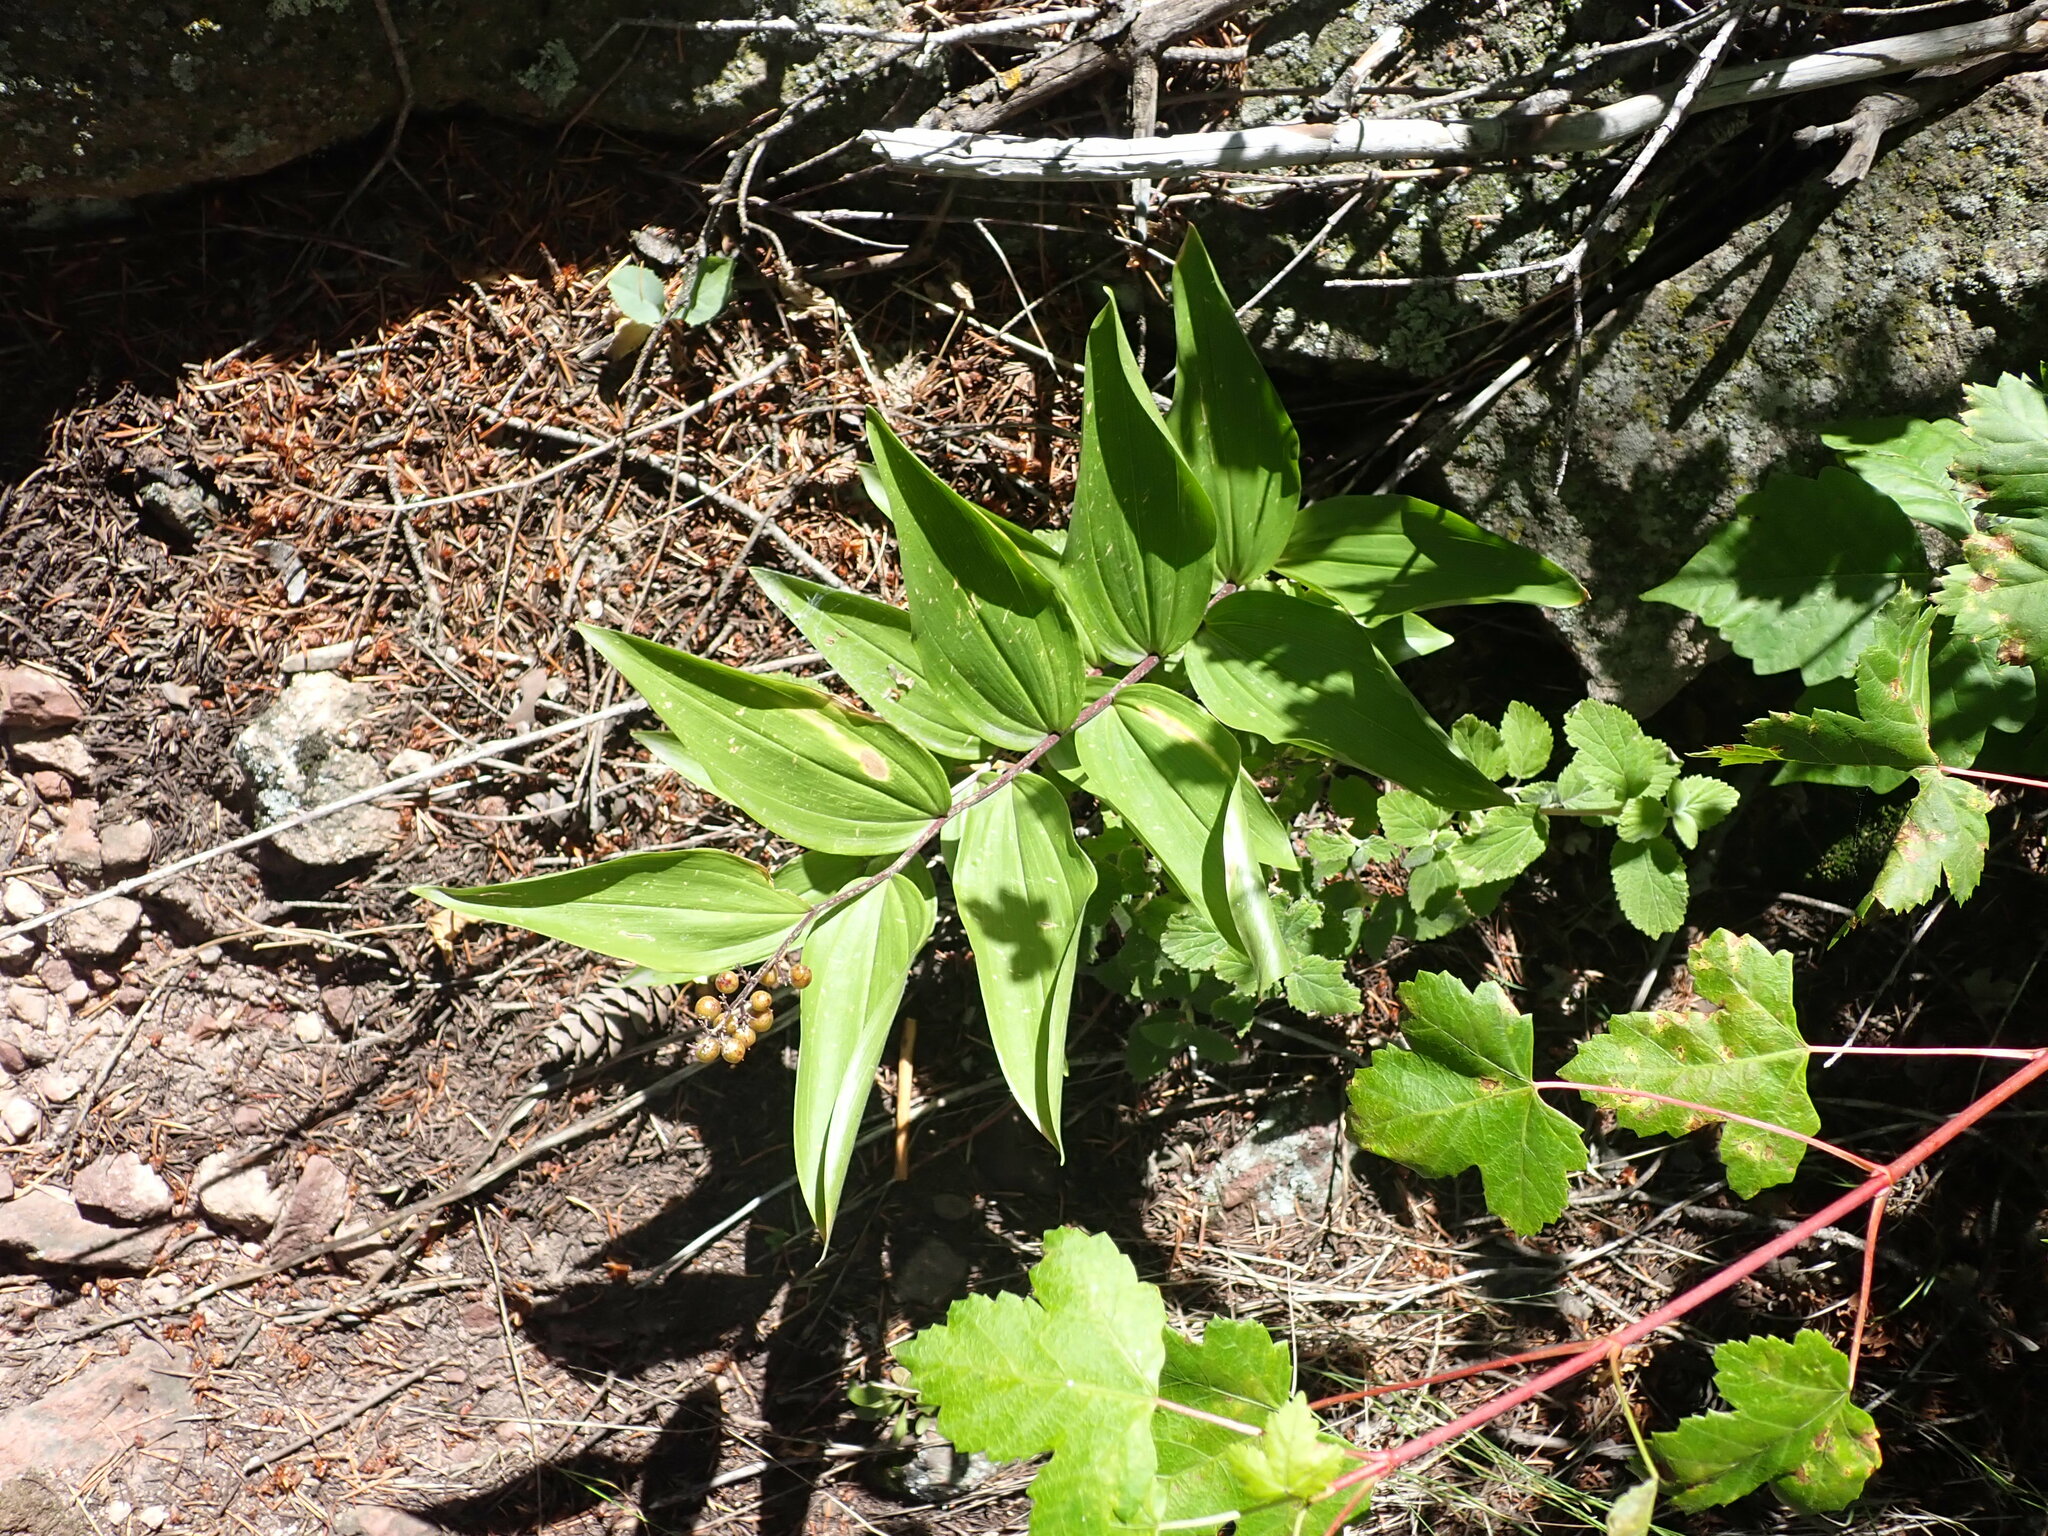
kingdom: Plantae
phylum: Tracheophyta
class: Liliopsida
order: Asparagales
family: Asparagaceae
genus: Maianthemum
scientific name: Maianthemum racemosum
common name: False spikenard
